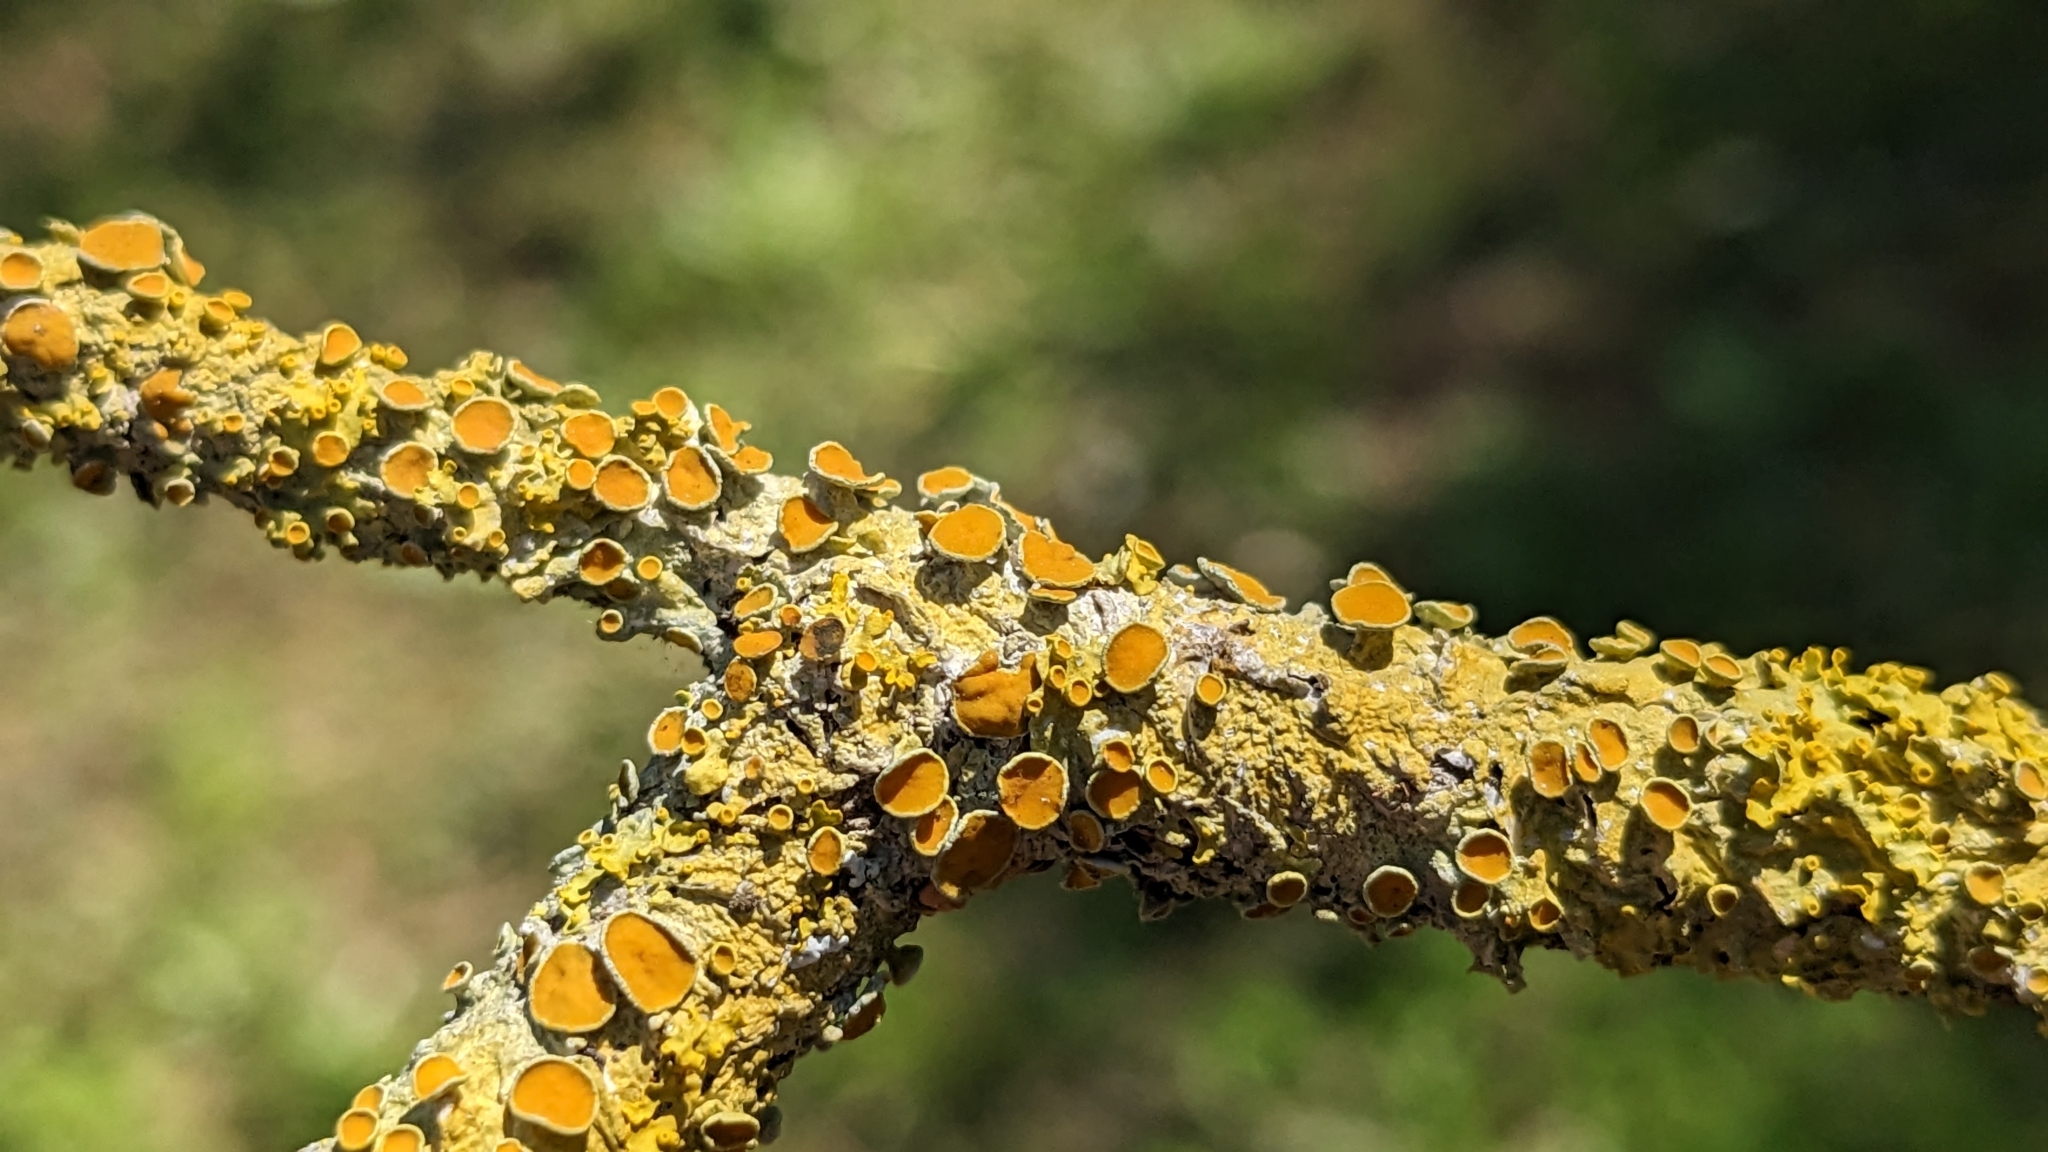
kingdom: Fungi
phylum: Ascomycota
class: Lecanoromycetes
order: Teloschistales
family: Teloschistaceae
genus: Xanthoria
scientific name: Xanthoria parietina
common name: Common orange lichen
